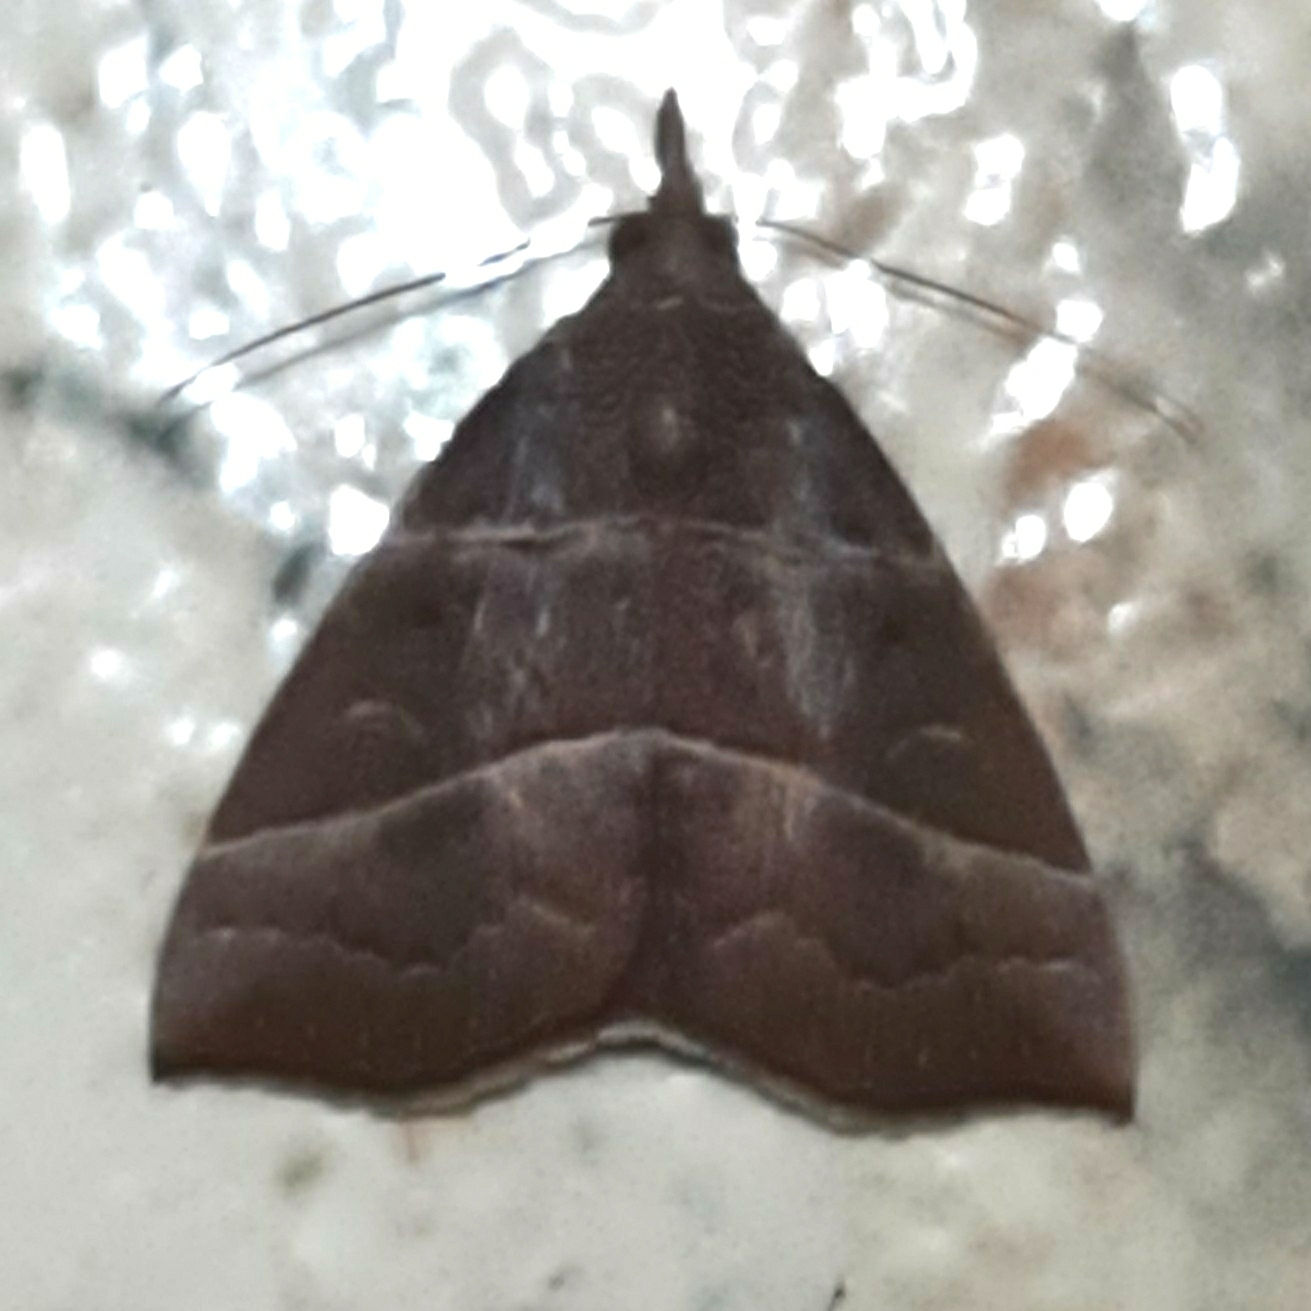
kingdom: Animalia
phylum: Arthropoda
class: Insecta
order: Lepidoptera
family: Erebidae
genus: Hypena
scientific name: Hypena lollia
